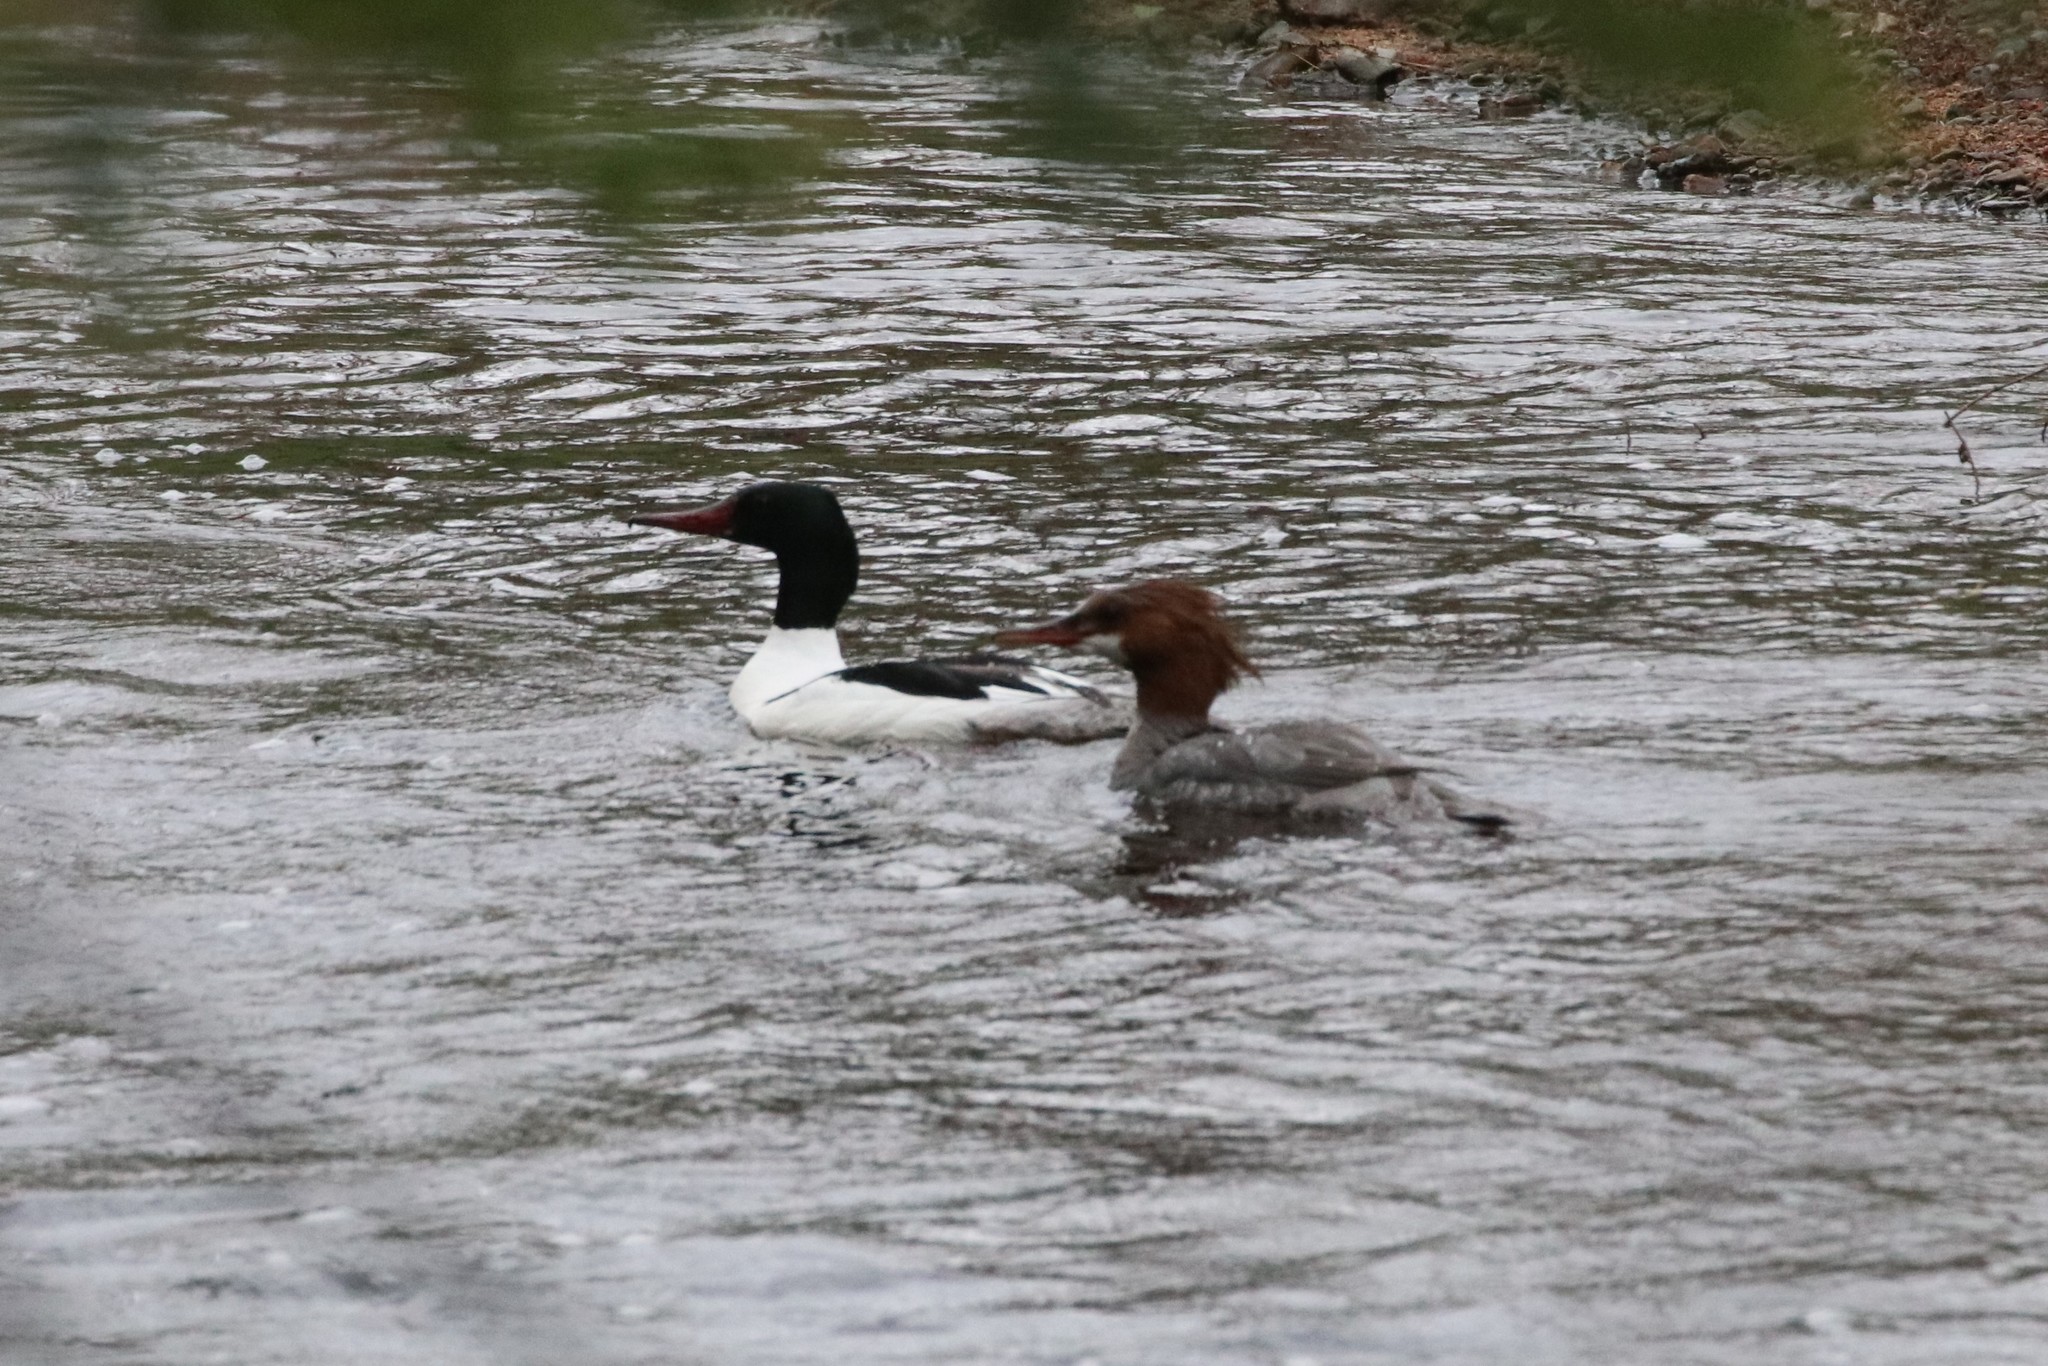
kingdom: Animalia
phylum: Chordata
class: Aves
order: Anseriformes
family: Anatidae
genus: Mergus
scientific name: Mergus merganser
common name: Common merganser
